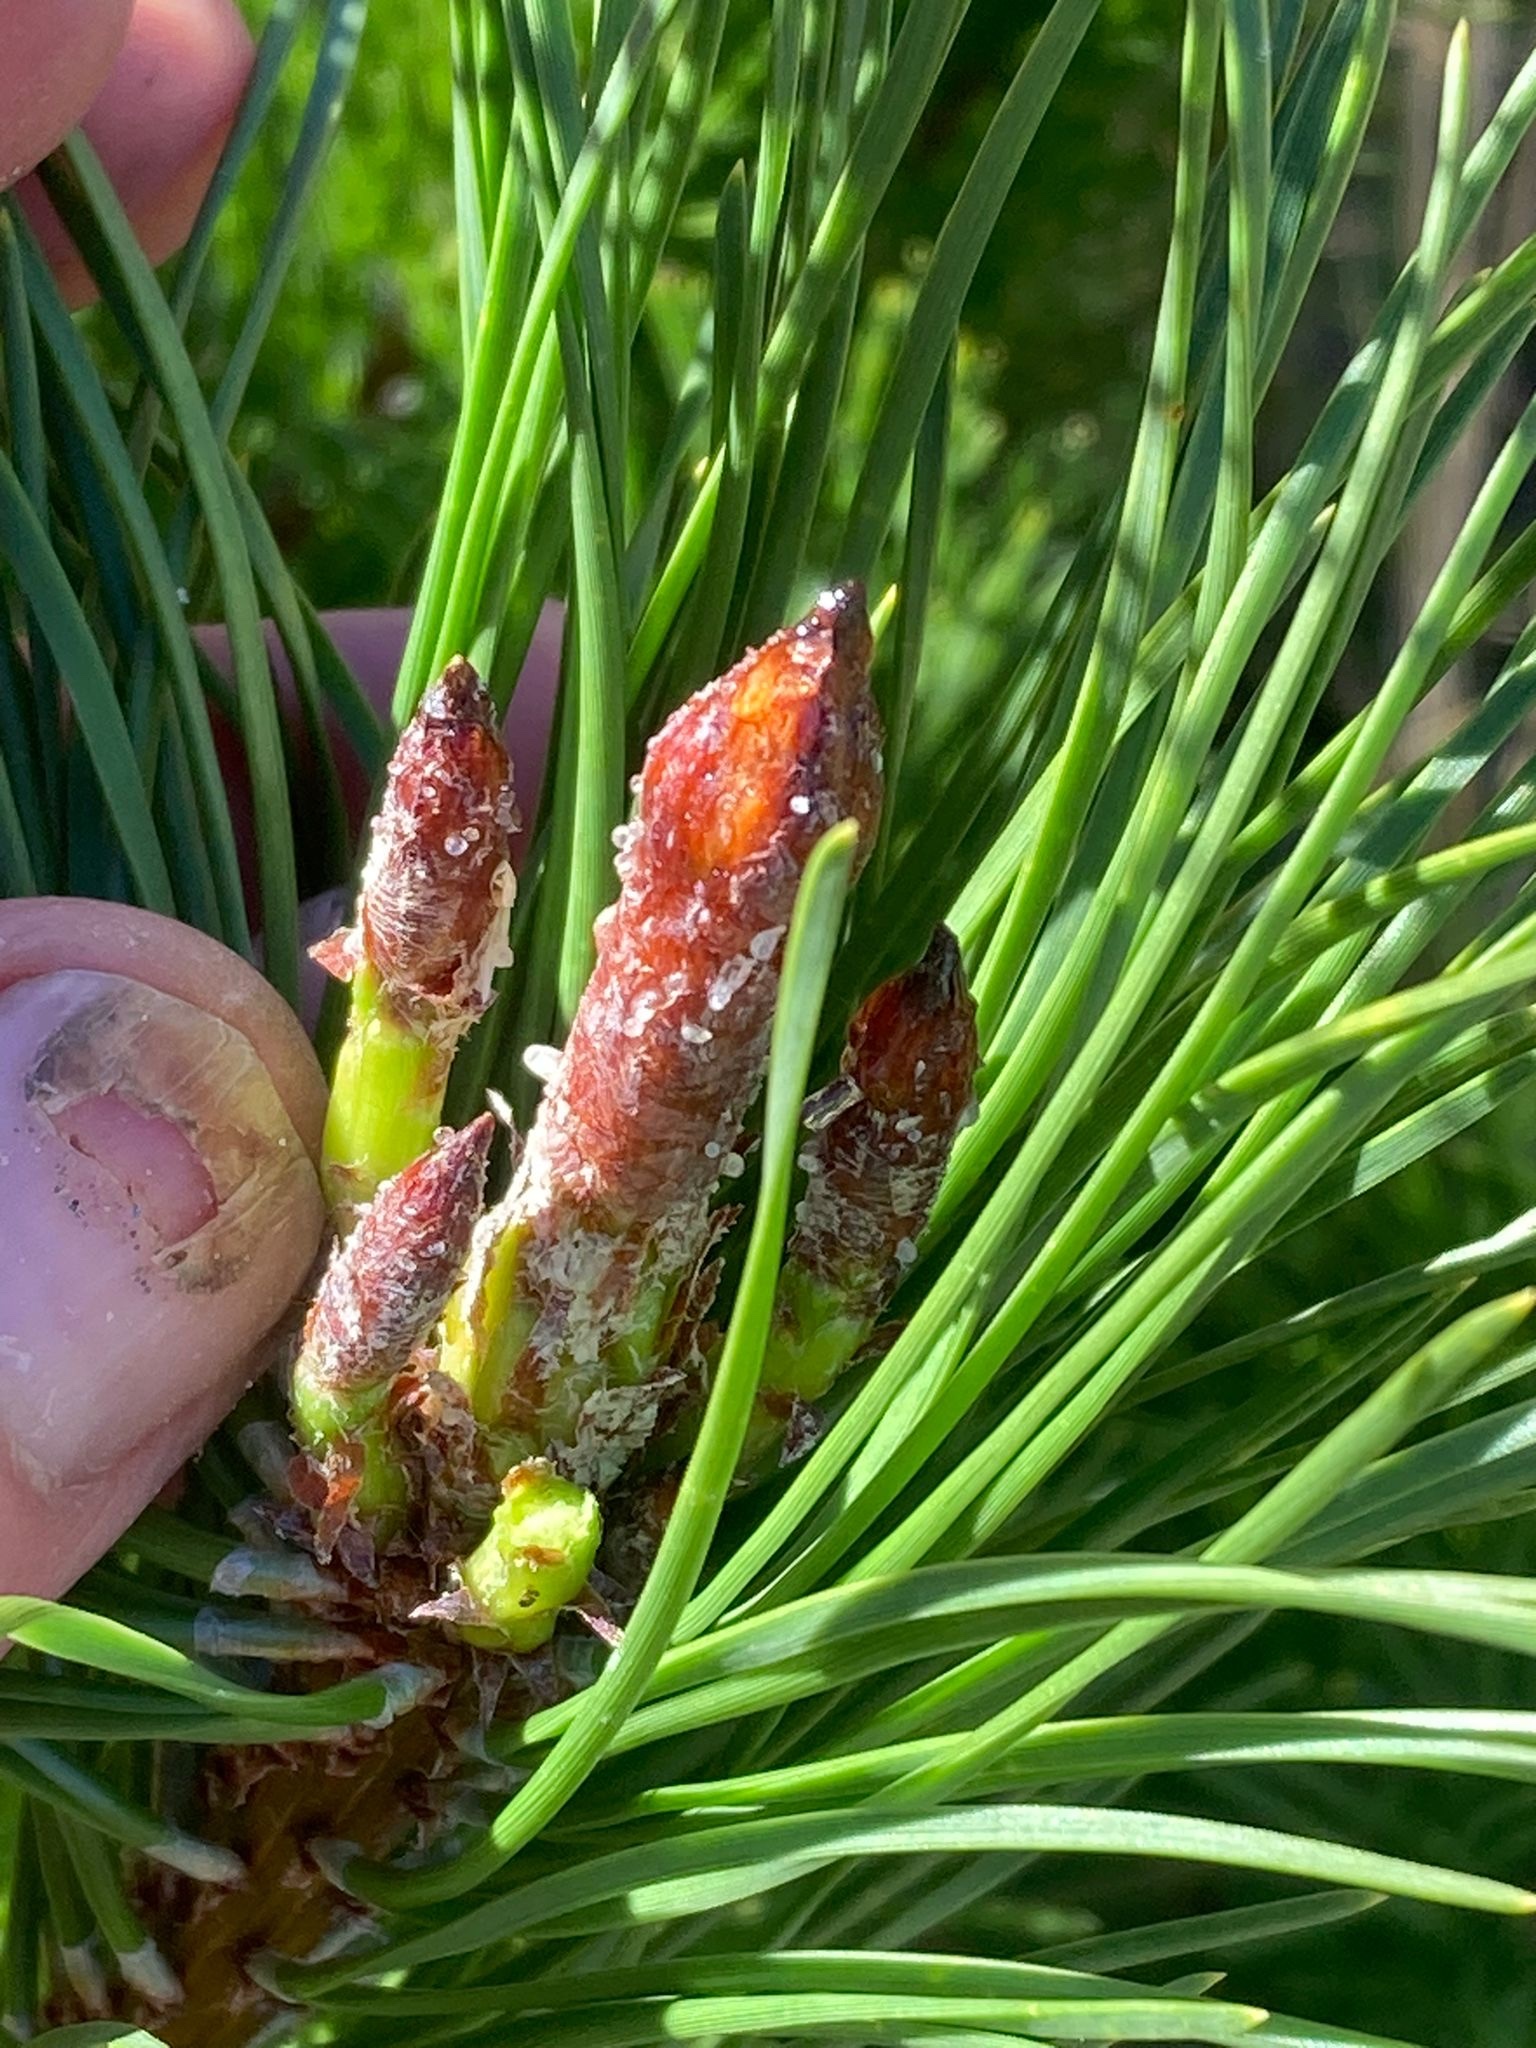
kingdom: Plantae
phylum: Tracheophyta
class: Pinopsida
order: Pinales
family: Pinaceae
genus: Pinus
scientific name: Pinus contorta
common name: Lodgepole pine
